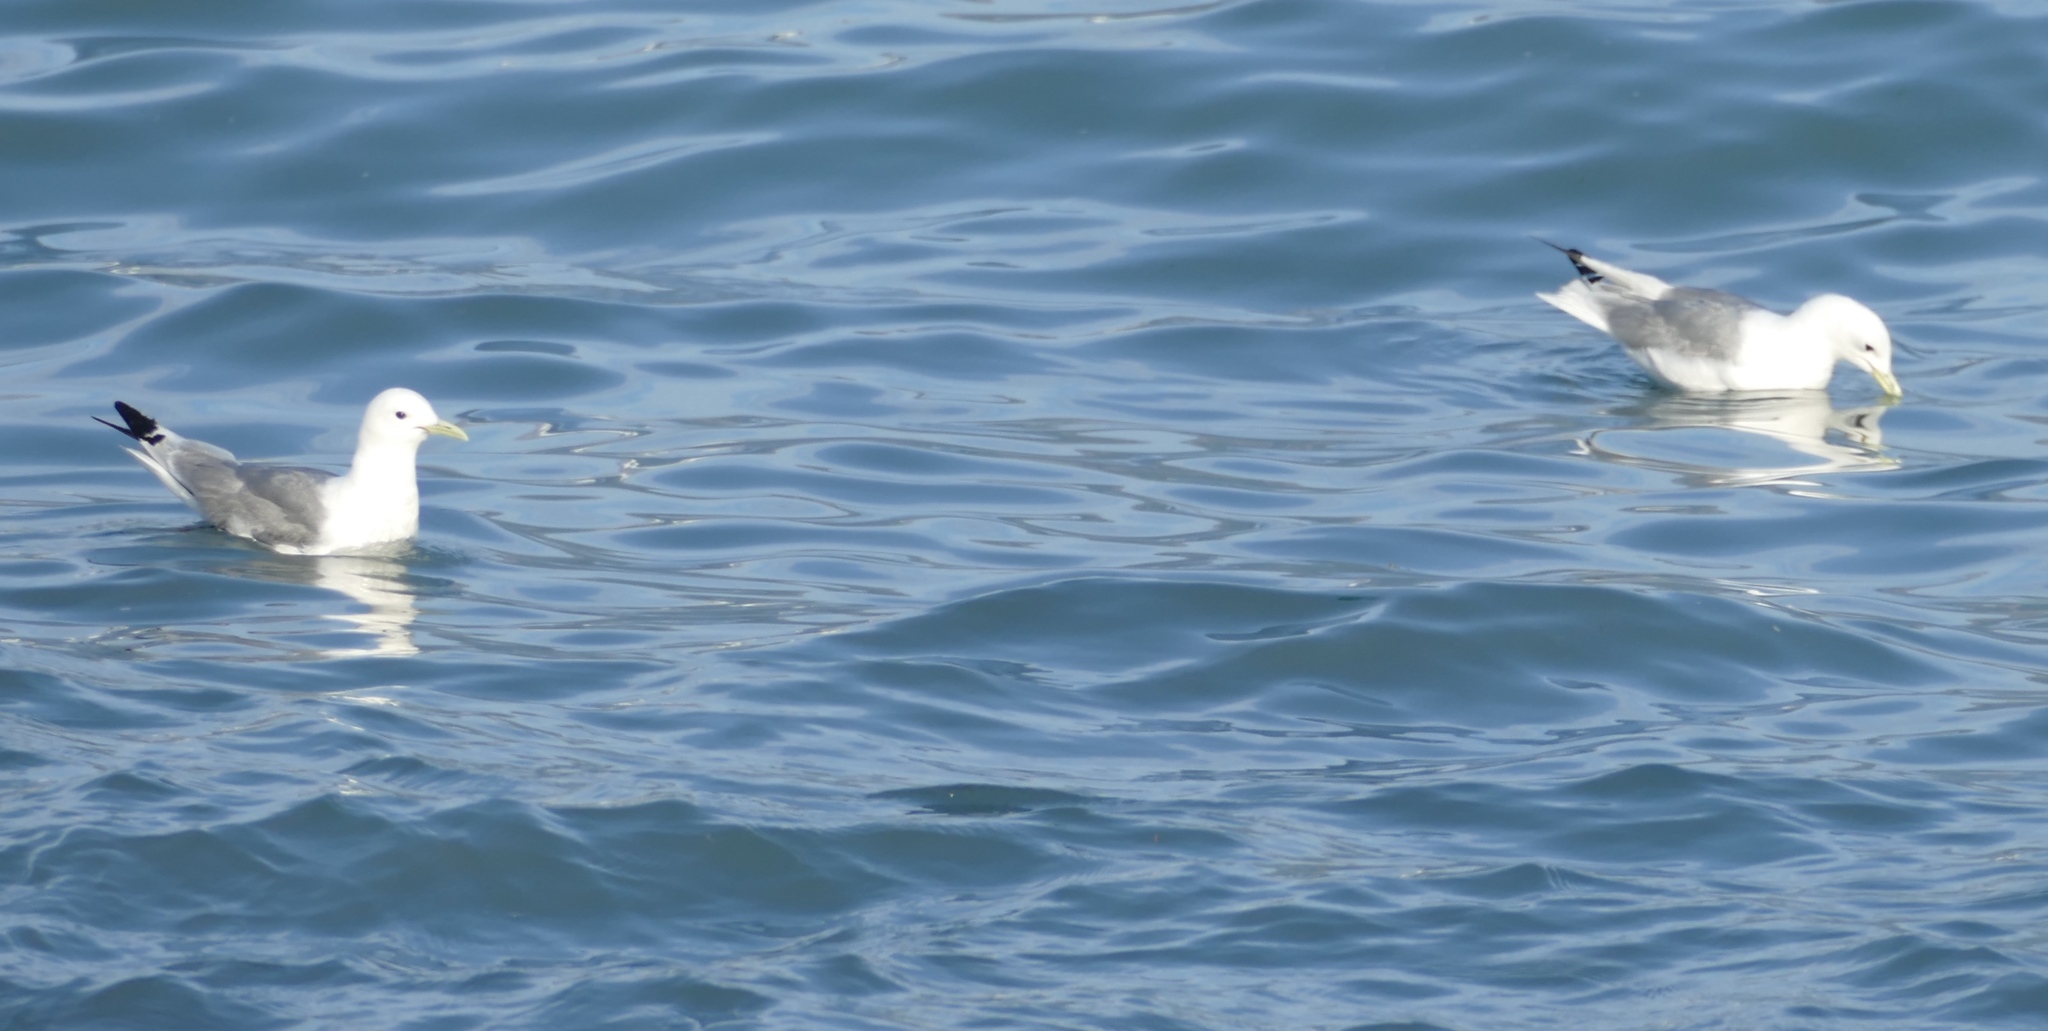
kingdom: Animalia
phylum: Chordata
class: Aves
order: Charadriiformes
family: Laridae
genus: Rissa
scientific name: Rissa tridactyla
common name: Black-legged kittiwake
